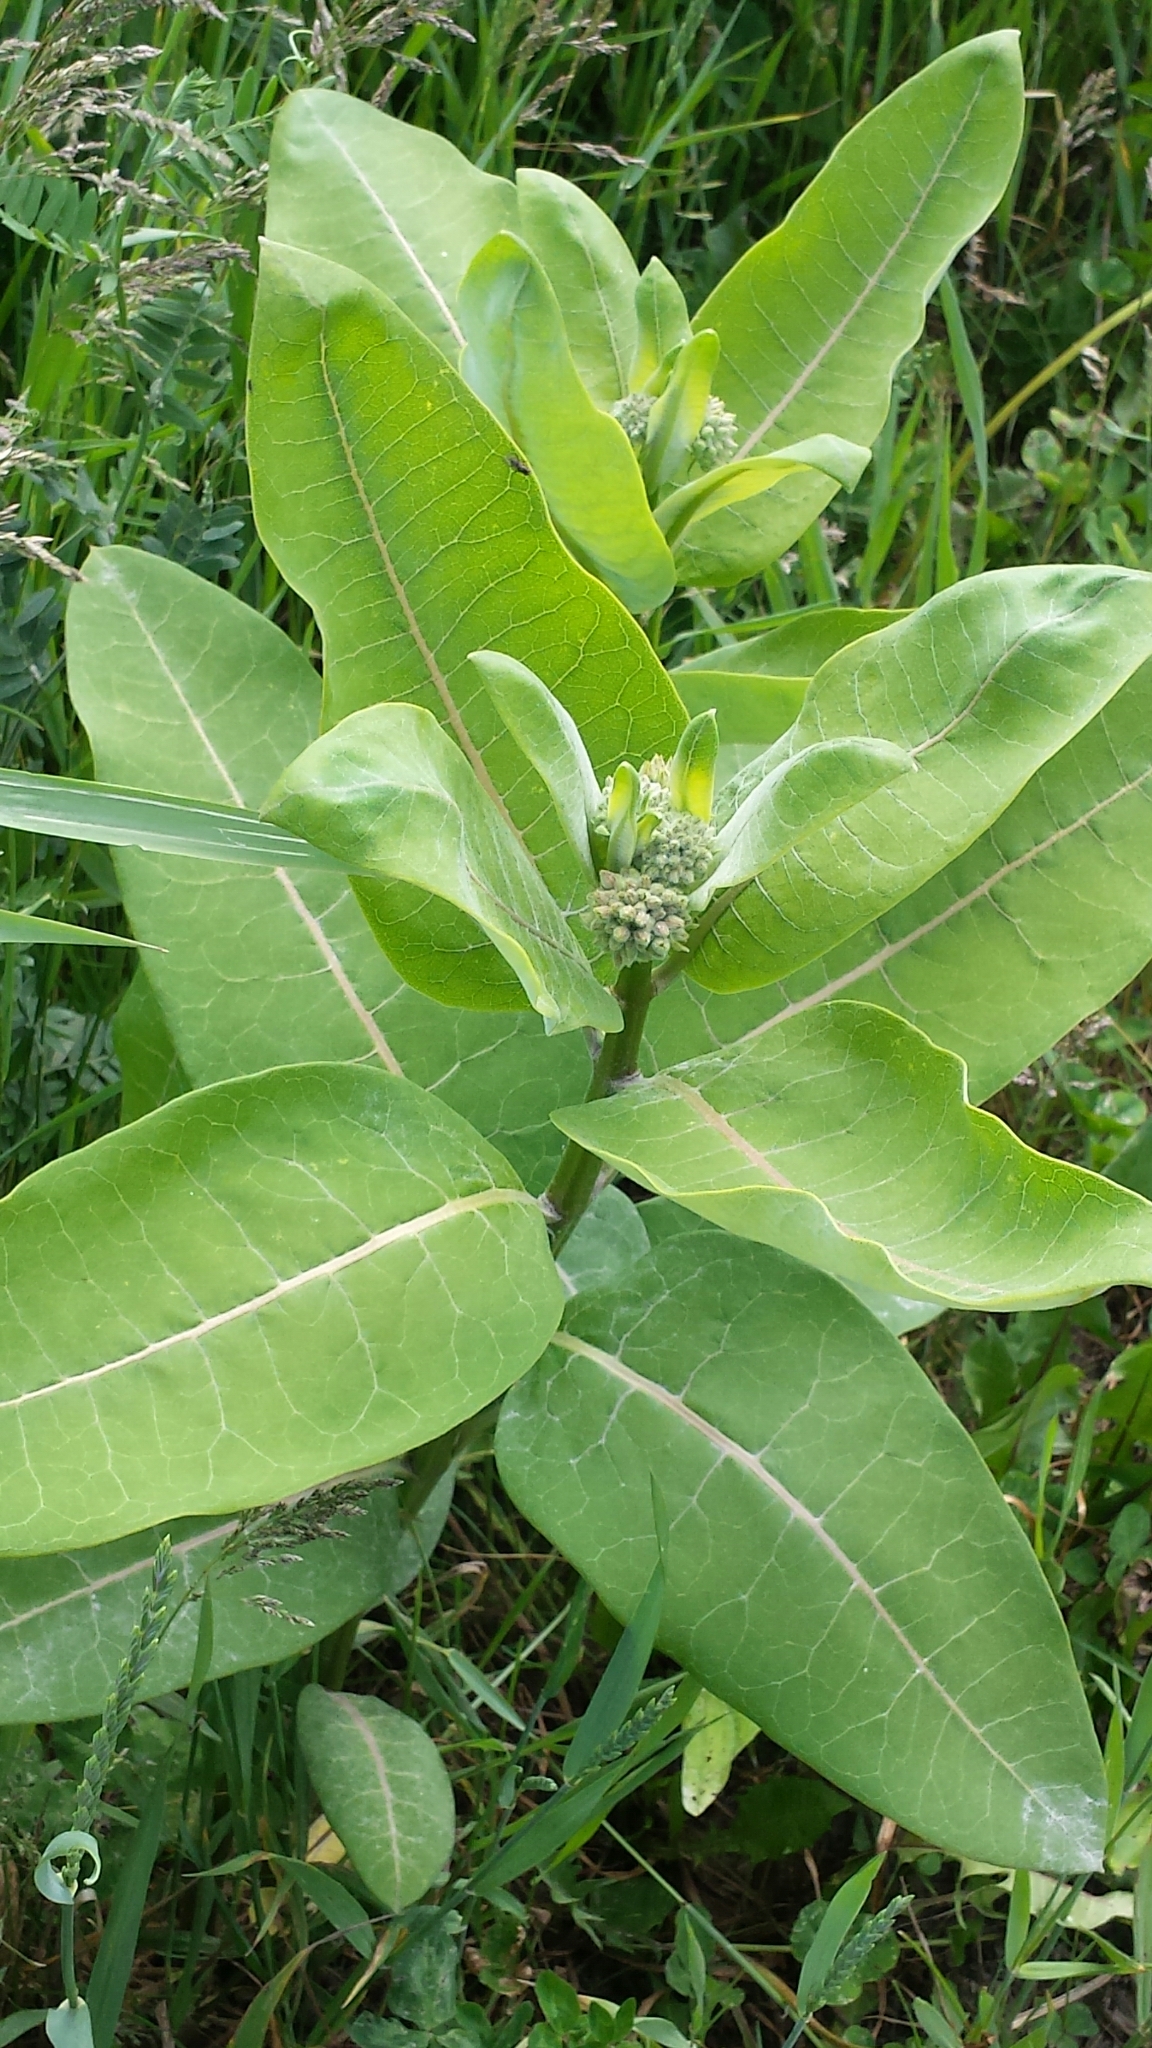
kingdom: Plantae
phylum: Tracheophyta
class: Magnoliopsida
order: Gentianales
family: Apocynaceae
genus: Asclepias
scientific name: Asclepias syriaca
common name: Common milkweed
